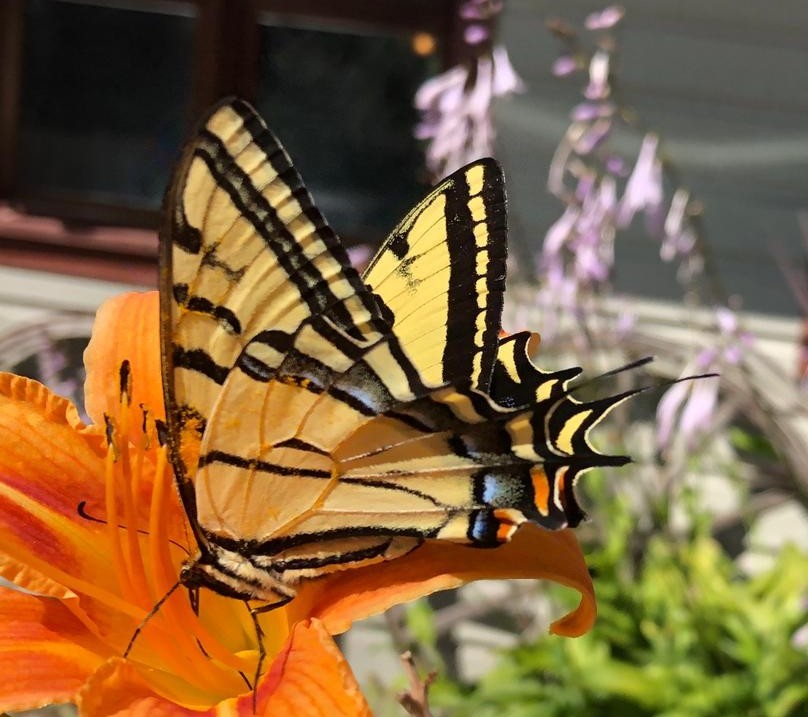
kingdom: Animalia
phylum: Arthropoda
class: Insecta
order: Lepidoptera
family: Papilionidae
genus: Papilio
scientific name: Papilio multicaudata
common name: Two-tailed tiger swallowtail
